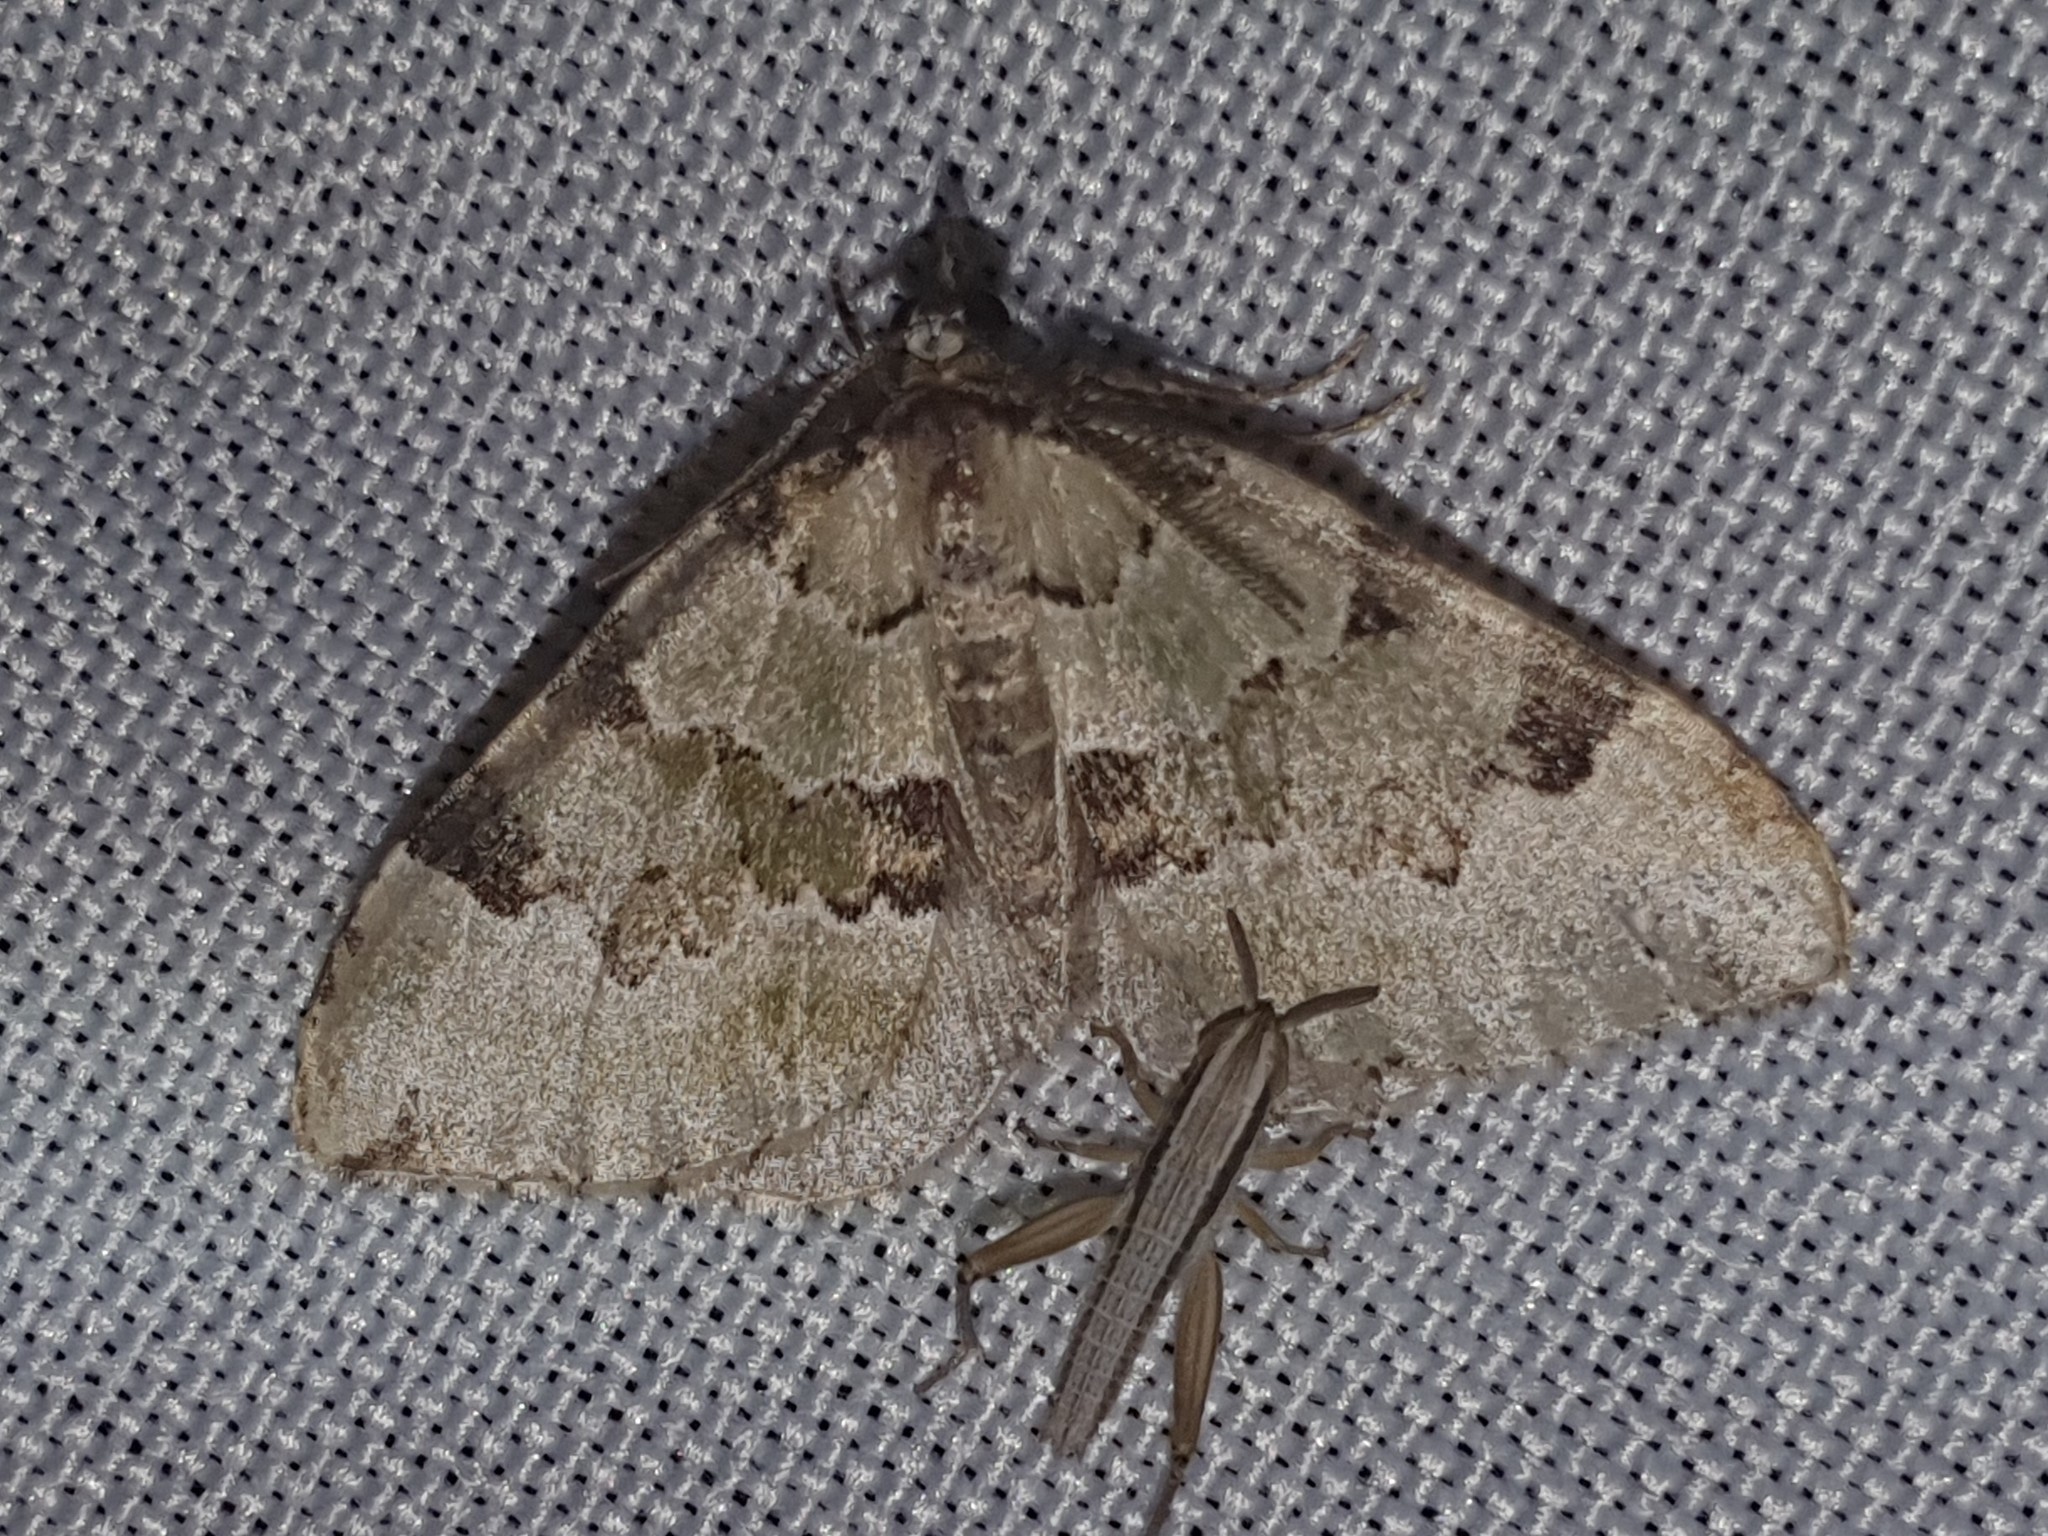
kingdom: Animalia
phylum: Arthropoda
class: Insecta
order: Lepidoptera
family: Geometridae
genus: Colostygia
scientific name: Colostygia pectinataria
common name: Green carpet
